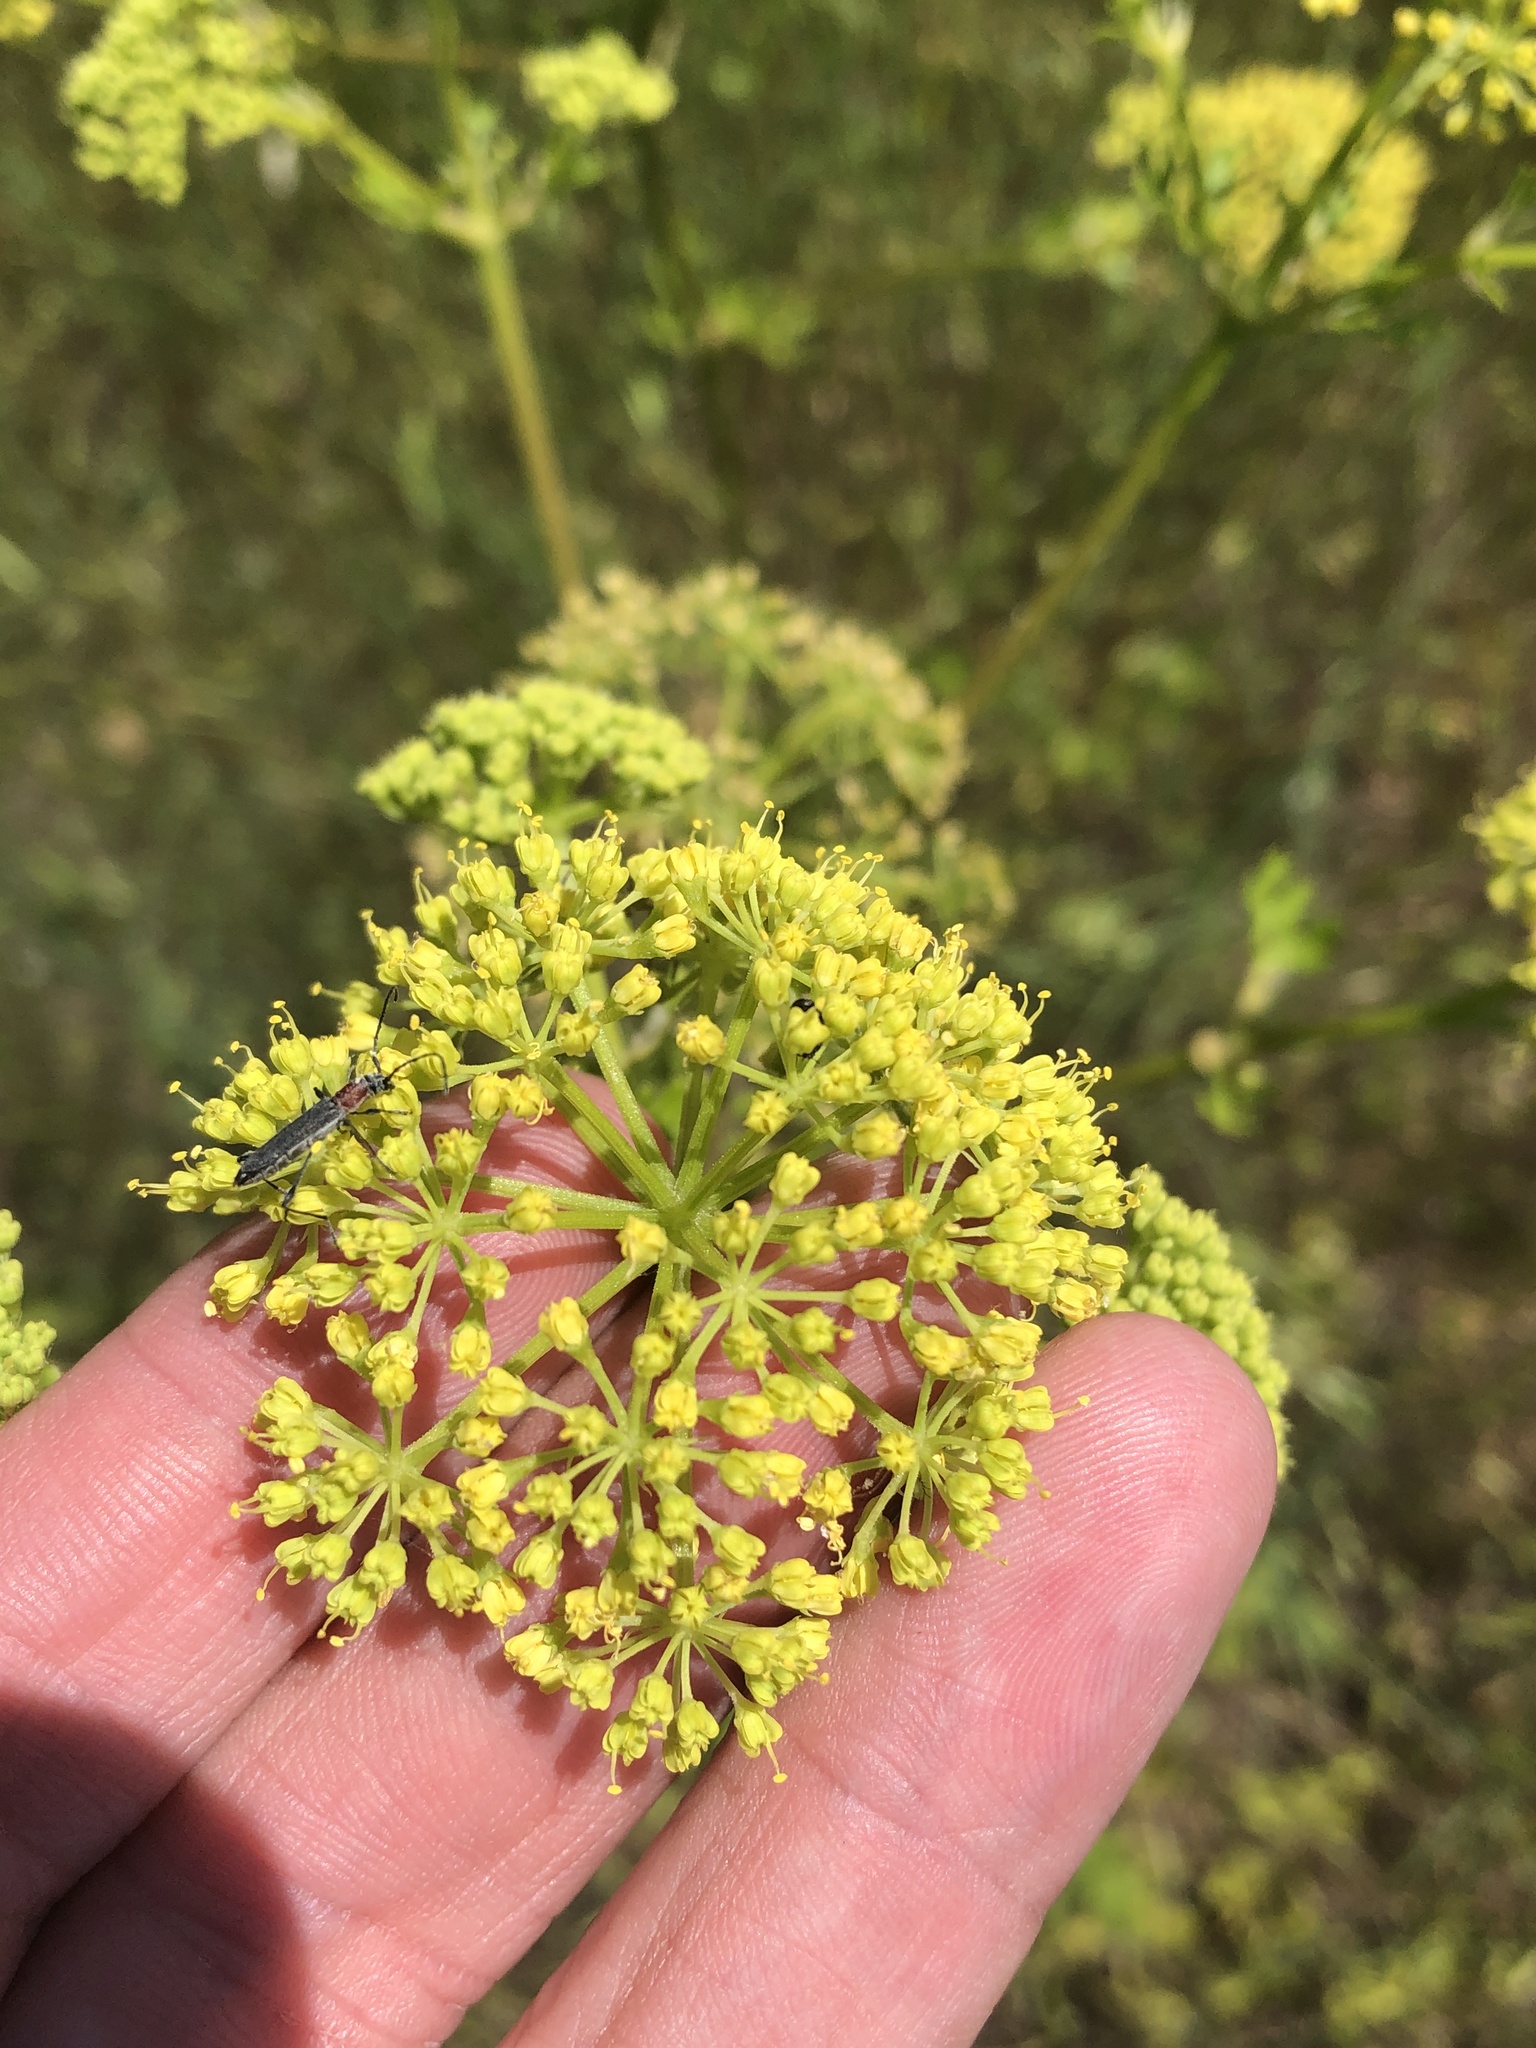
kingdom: Plantae
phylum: Tracheophyta
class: Magnoliopsida
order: Apiales
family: Apiaceae
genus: Polytaenia
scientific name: Polytaenia texana
